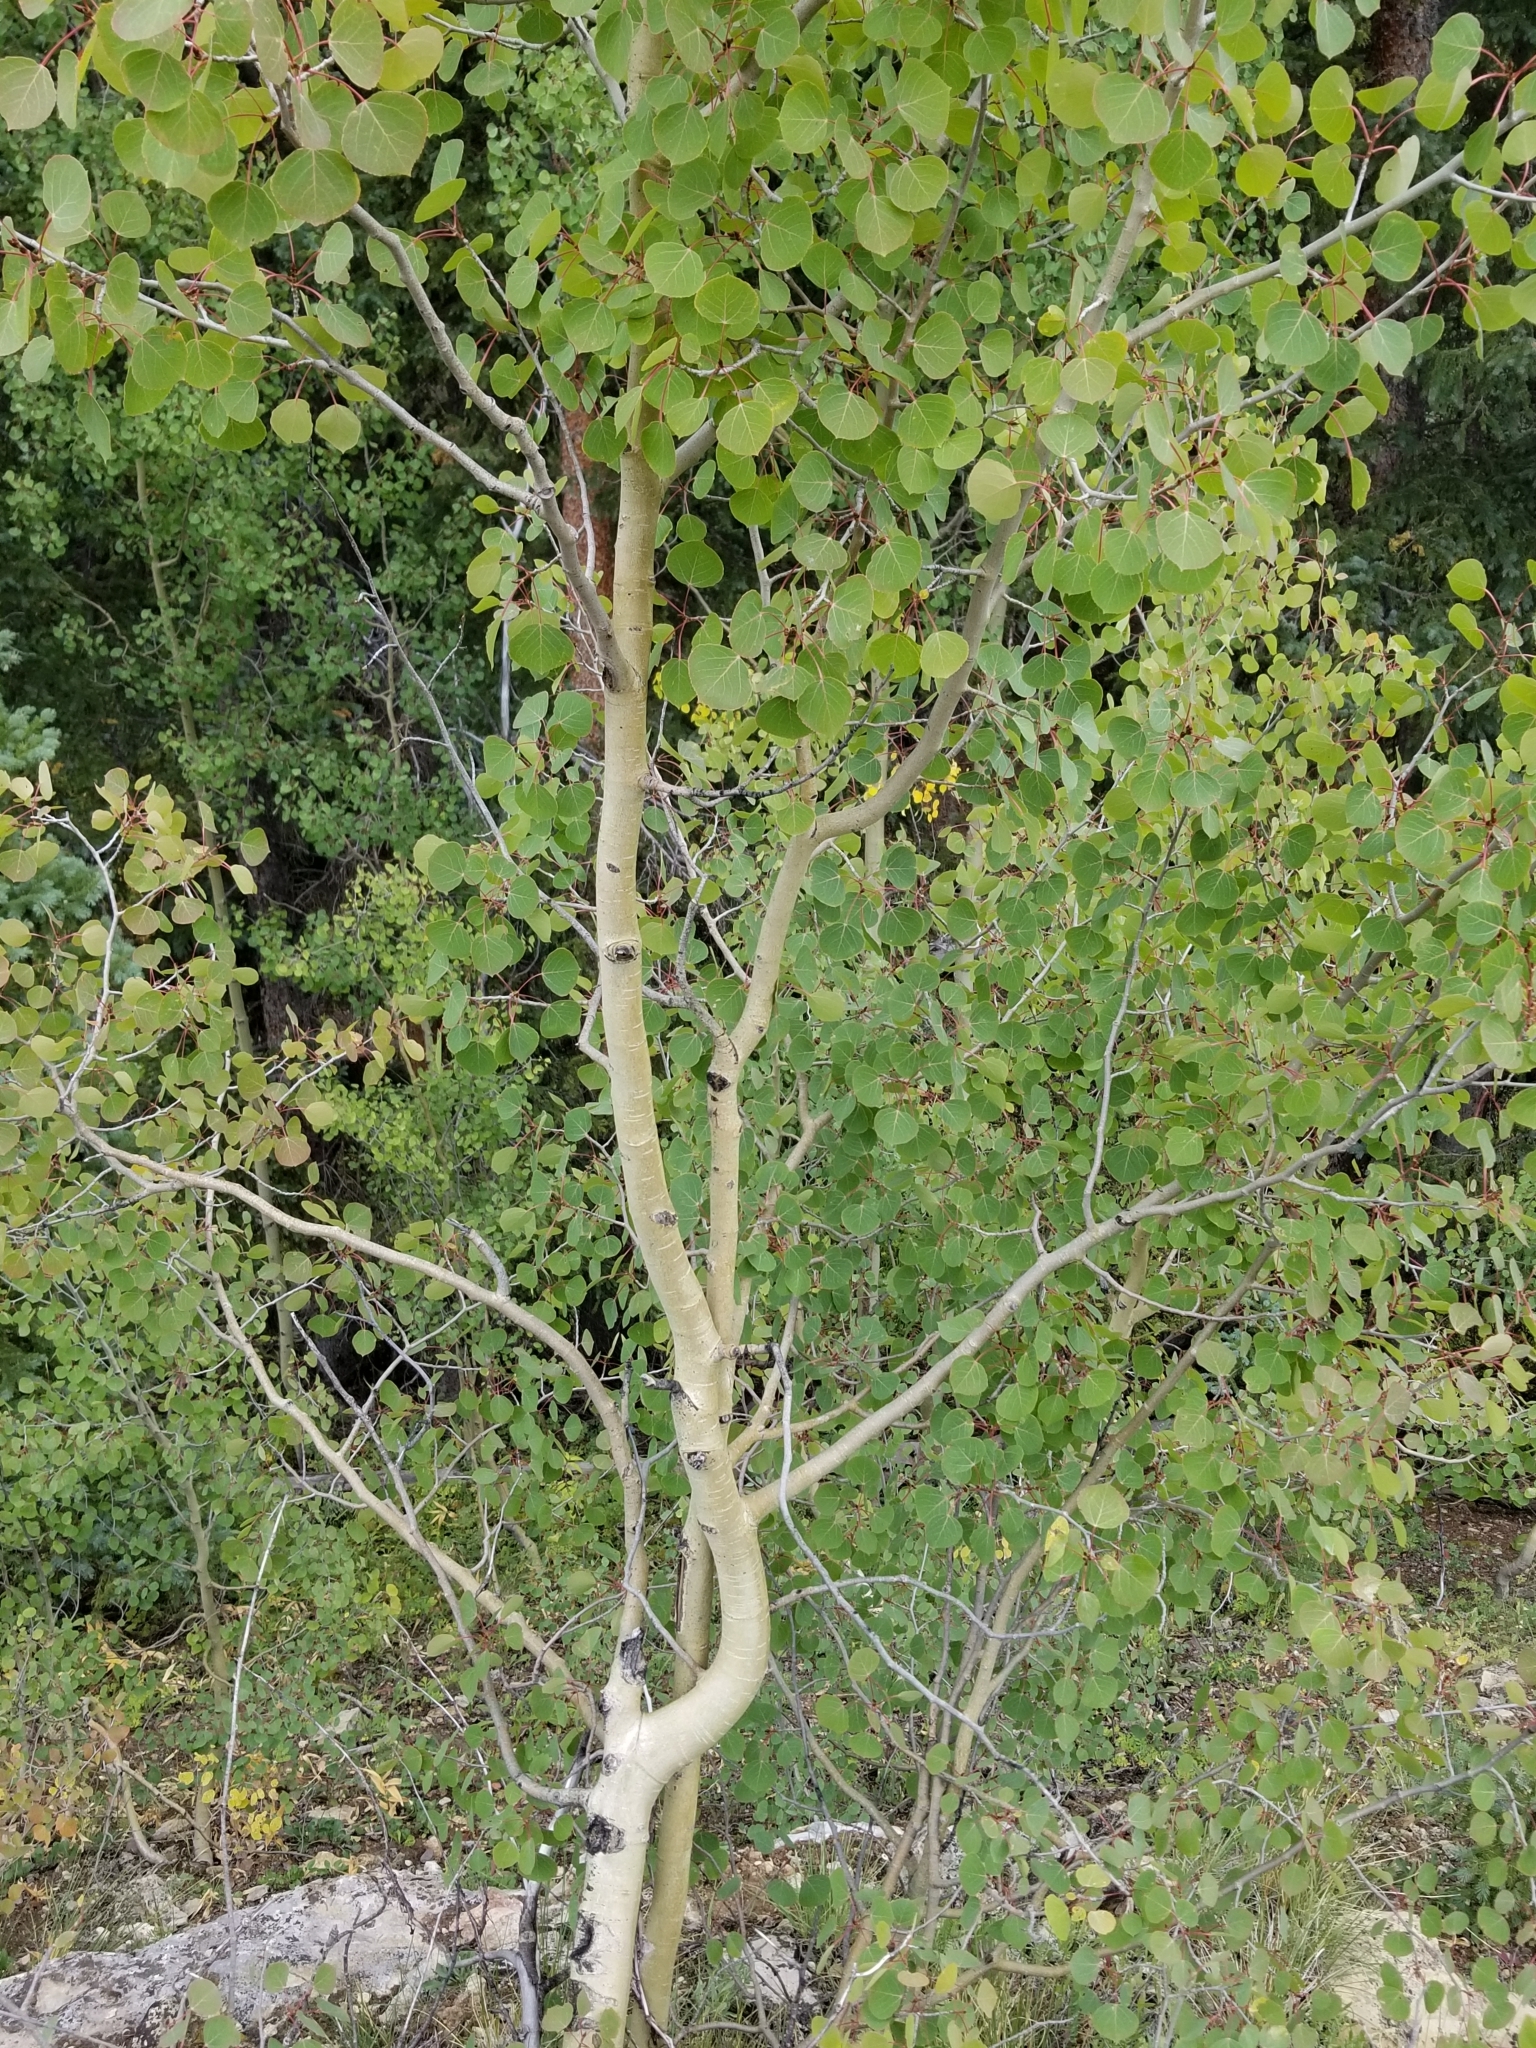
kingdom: Plantae
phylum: Tracheophyta
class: Magnoliopsida
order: Malpighiales
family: Salicaceae
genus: Populus
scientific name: Populus tremuloides
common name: Quaking aspen
